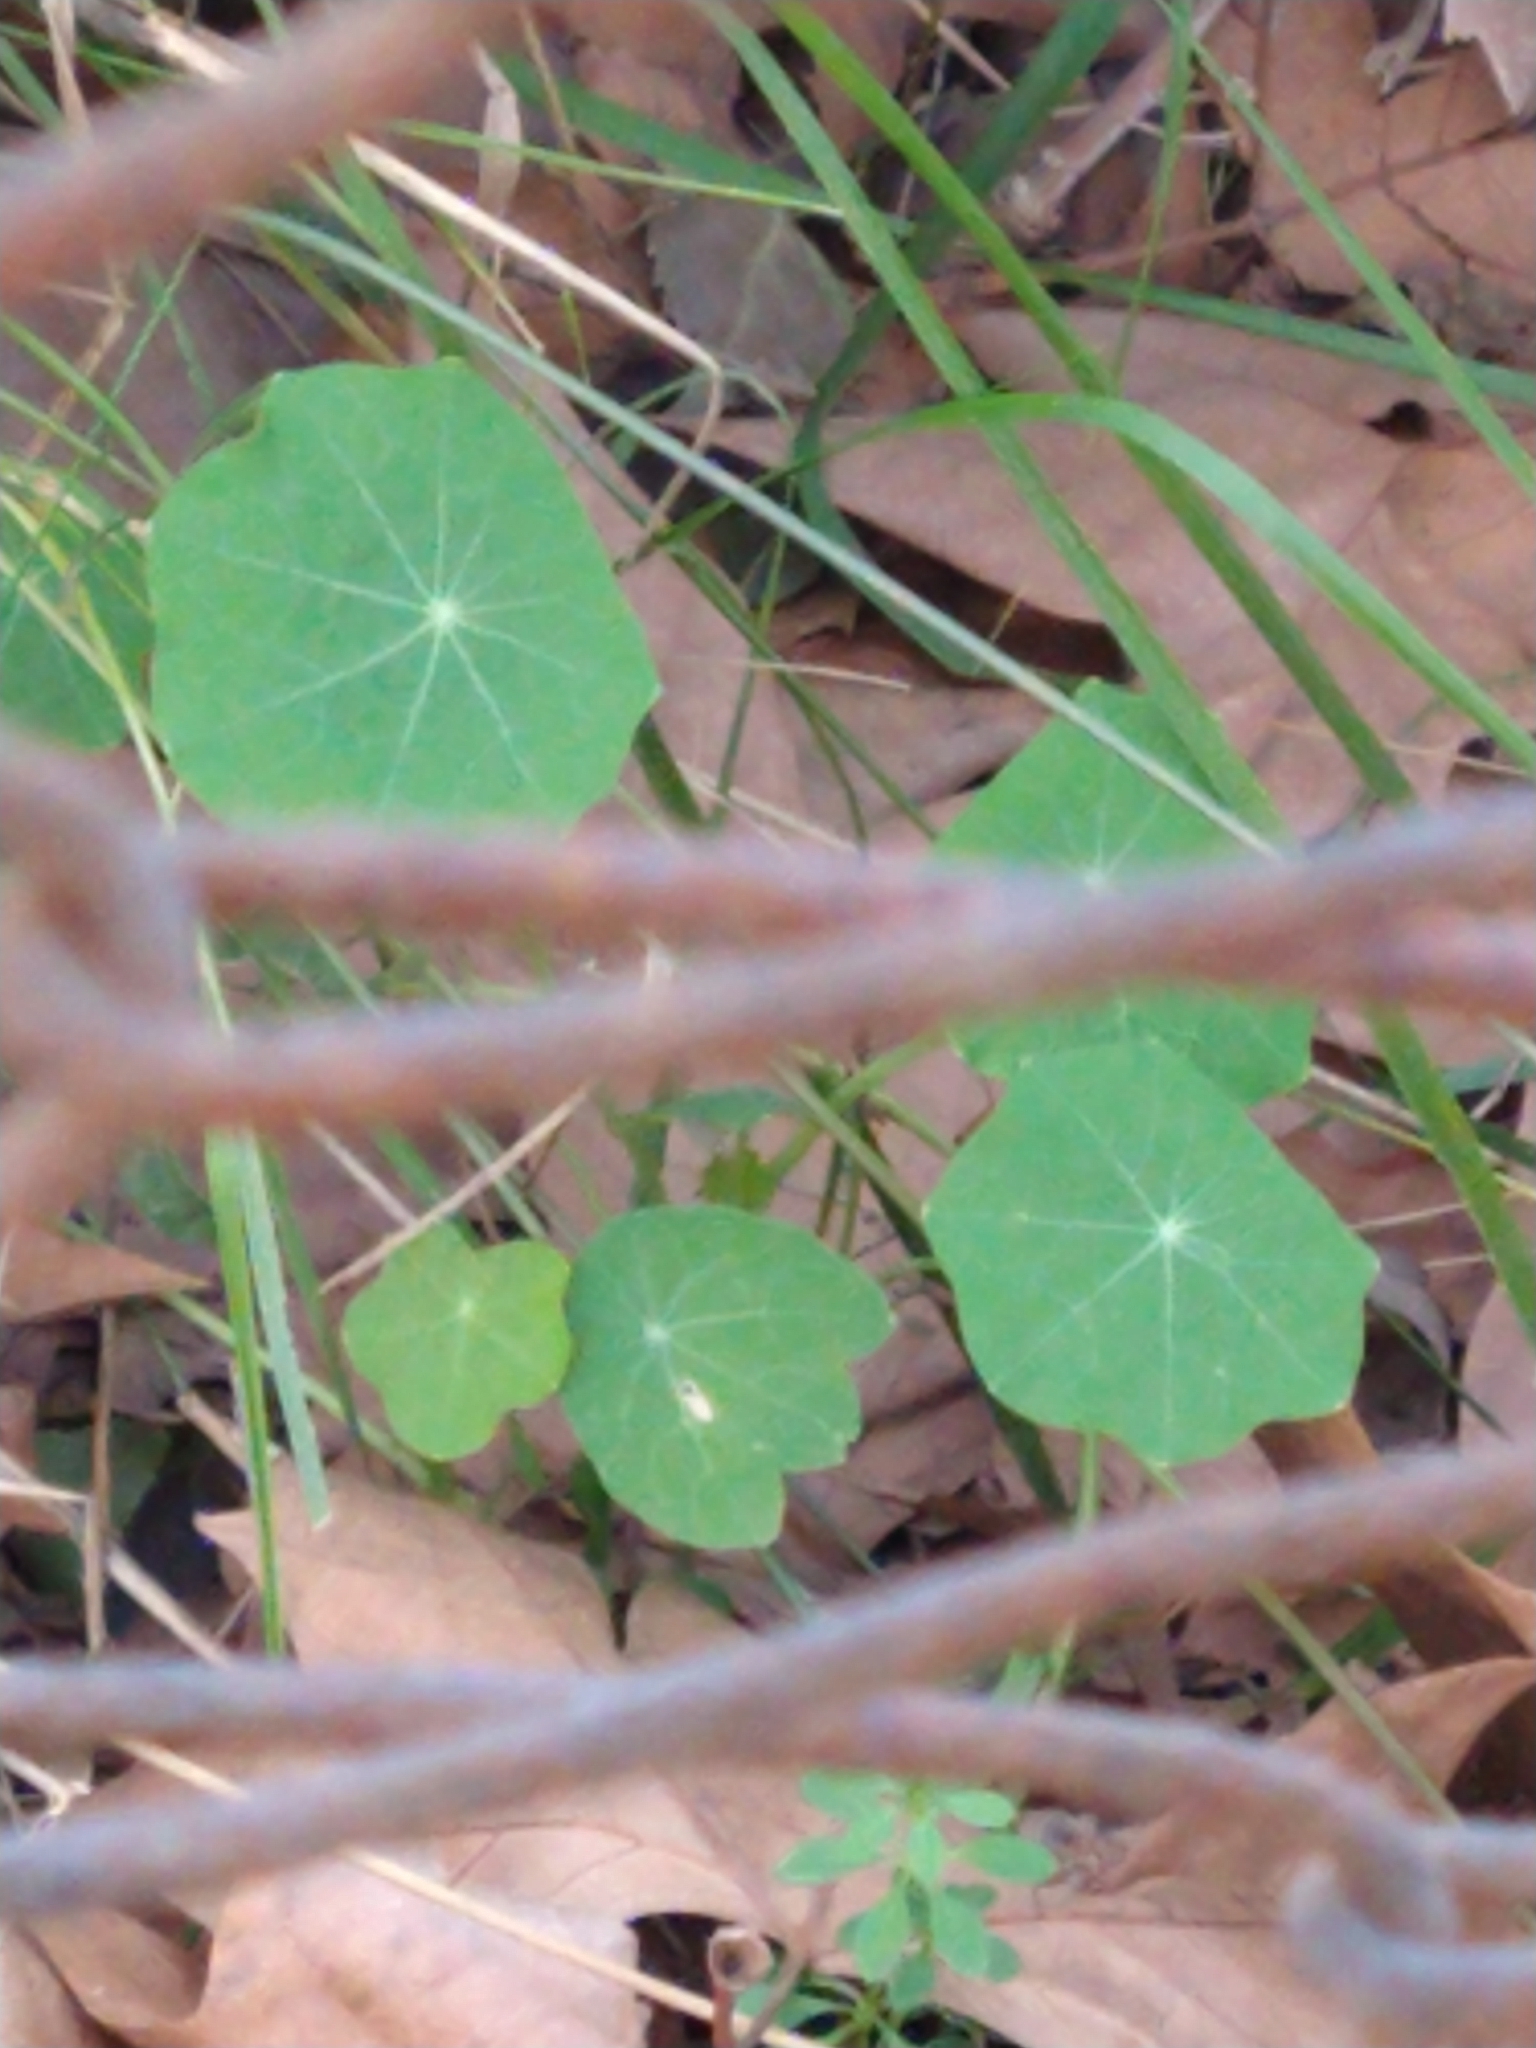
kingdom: Plantae
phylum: Tracheophyta
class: Magnoliopsida
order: Brassicales
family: Tropaeolaceae
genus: Tropaeolum
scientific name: Tropaeolum majus
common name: Nasturtium
